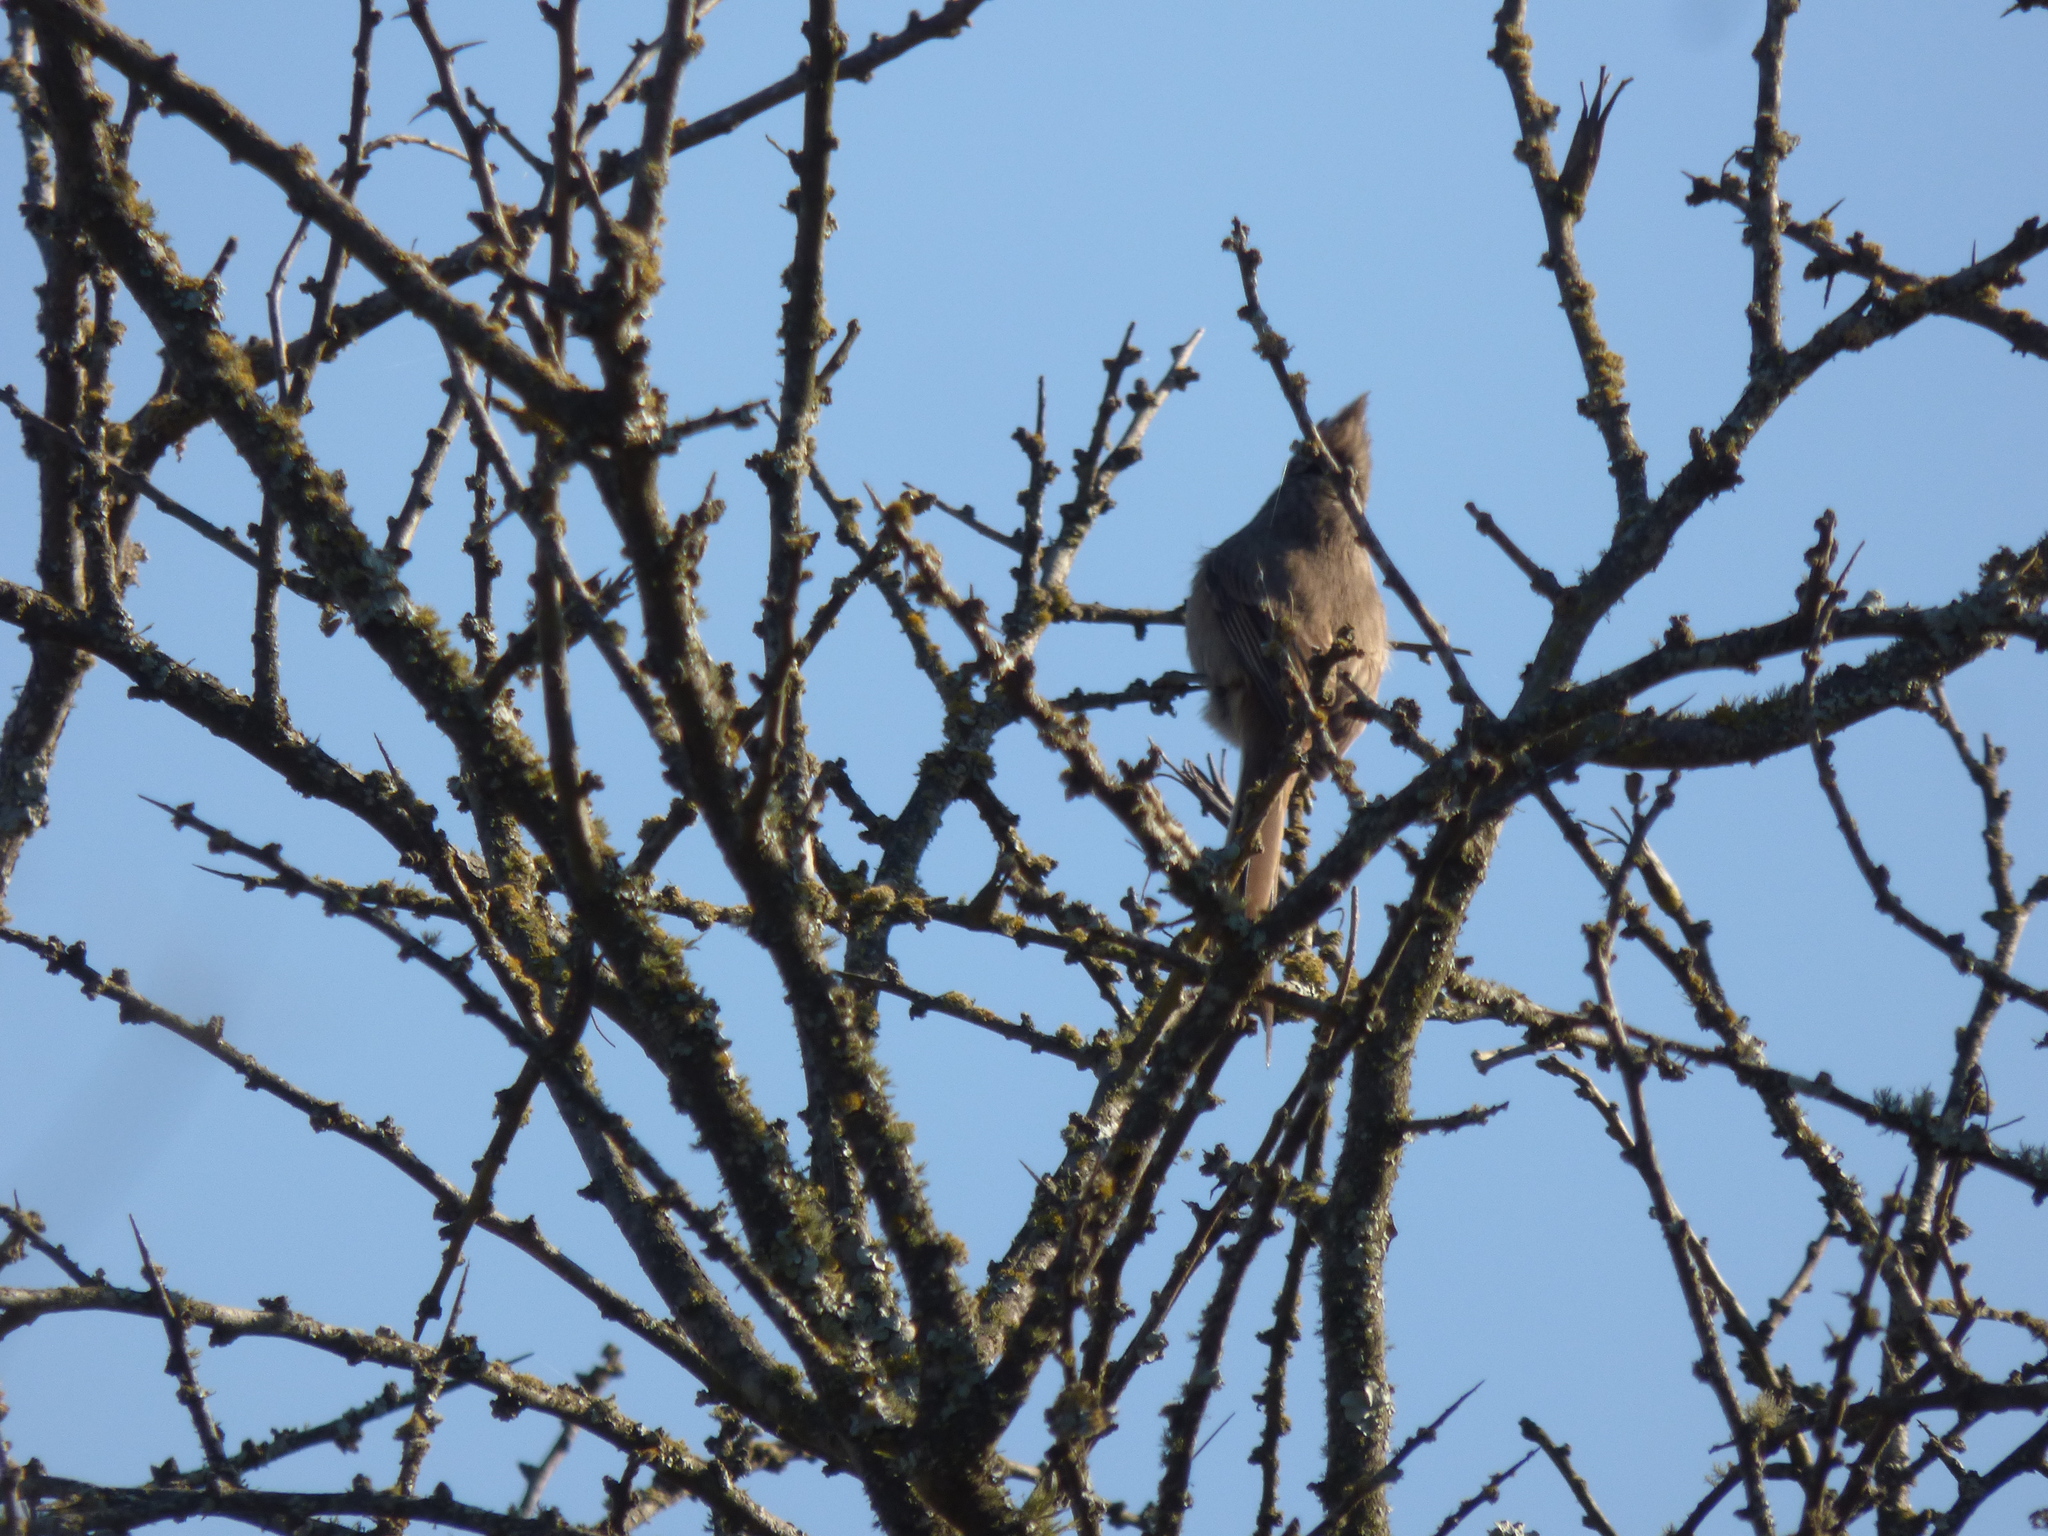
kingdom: Animalia
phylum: Chordata
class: Aves
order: Passeriformes
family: Furnariidae
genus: Leptasthenura
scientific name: Leptasthenura platensis
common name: Tufted tit-spinetail
